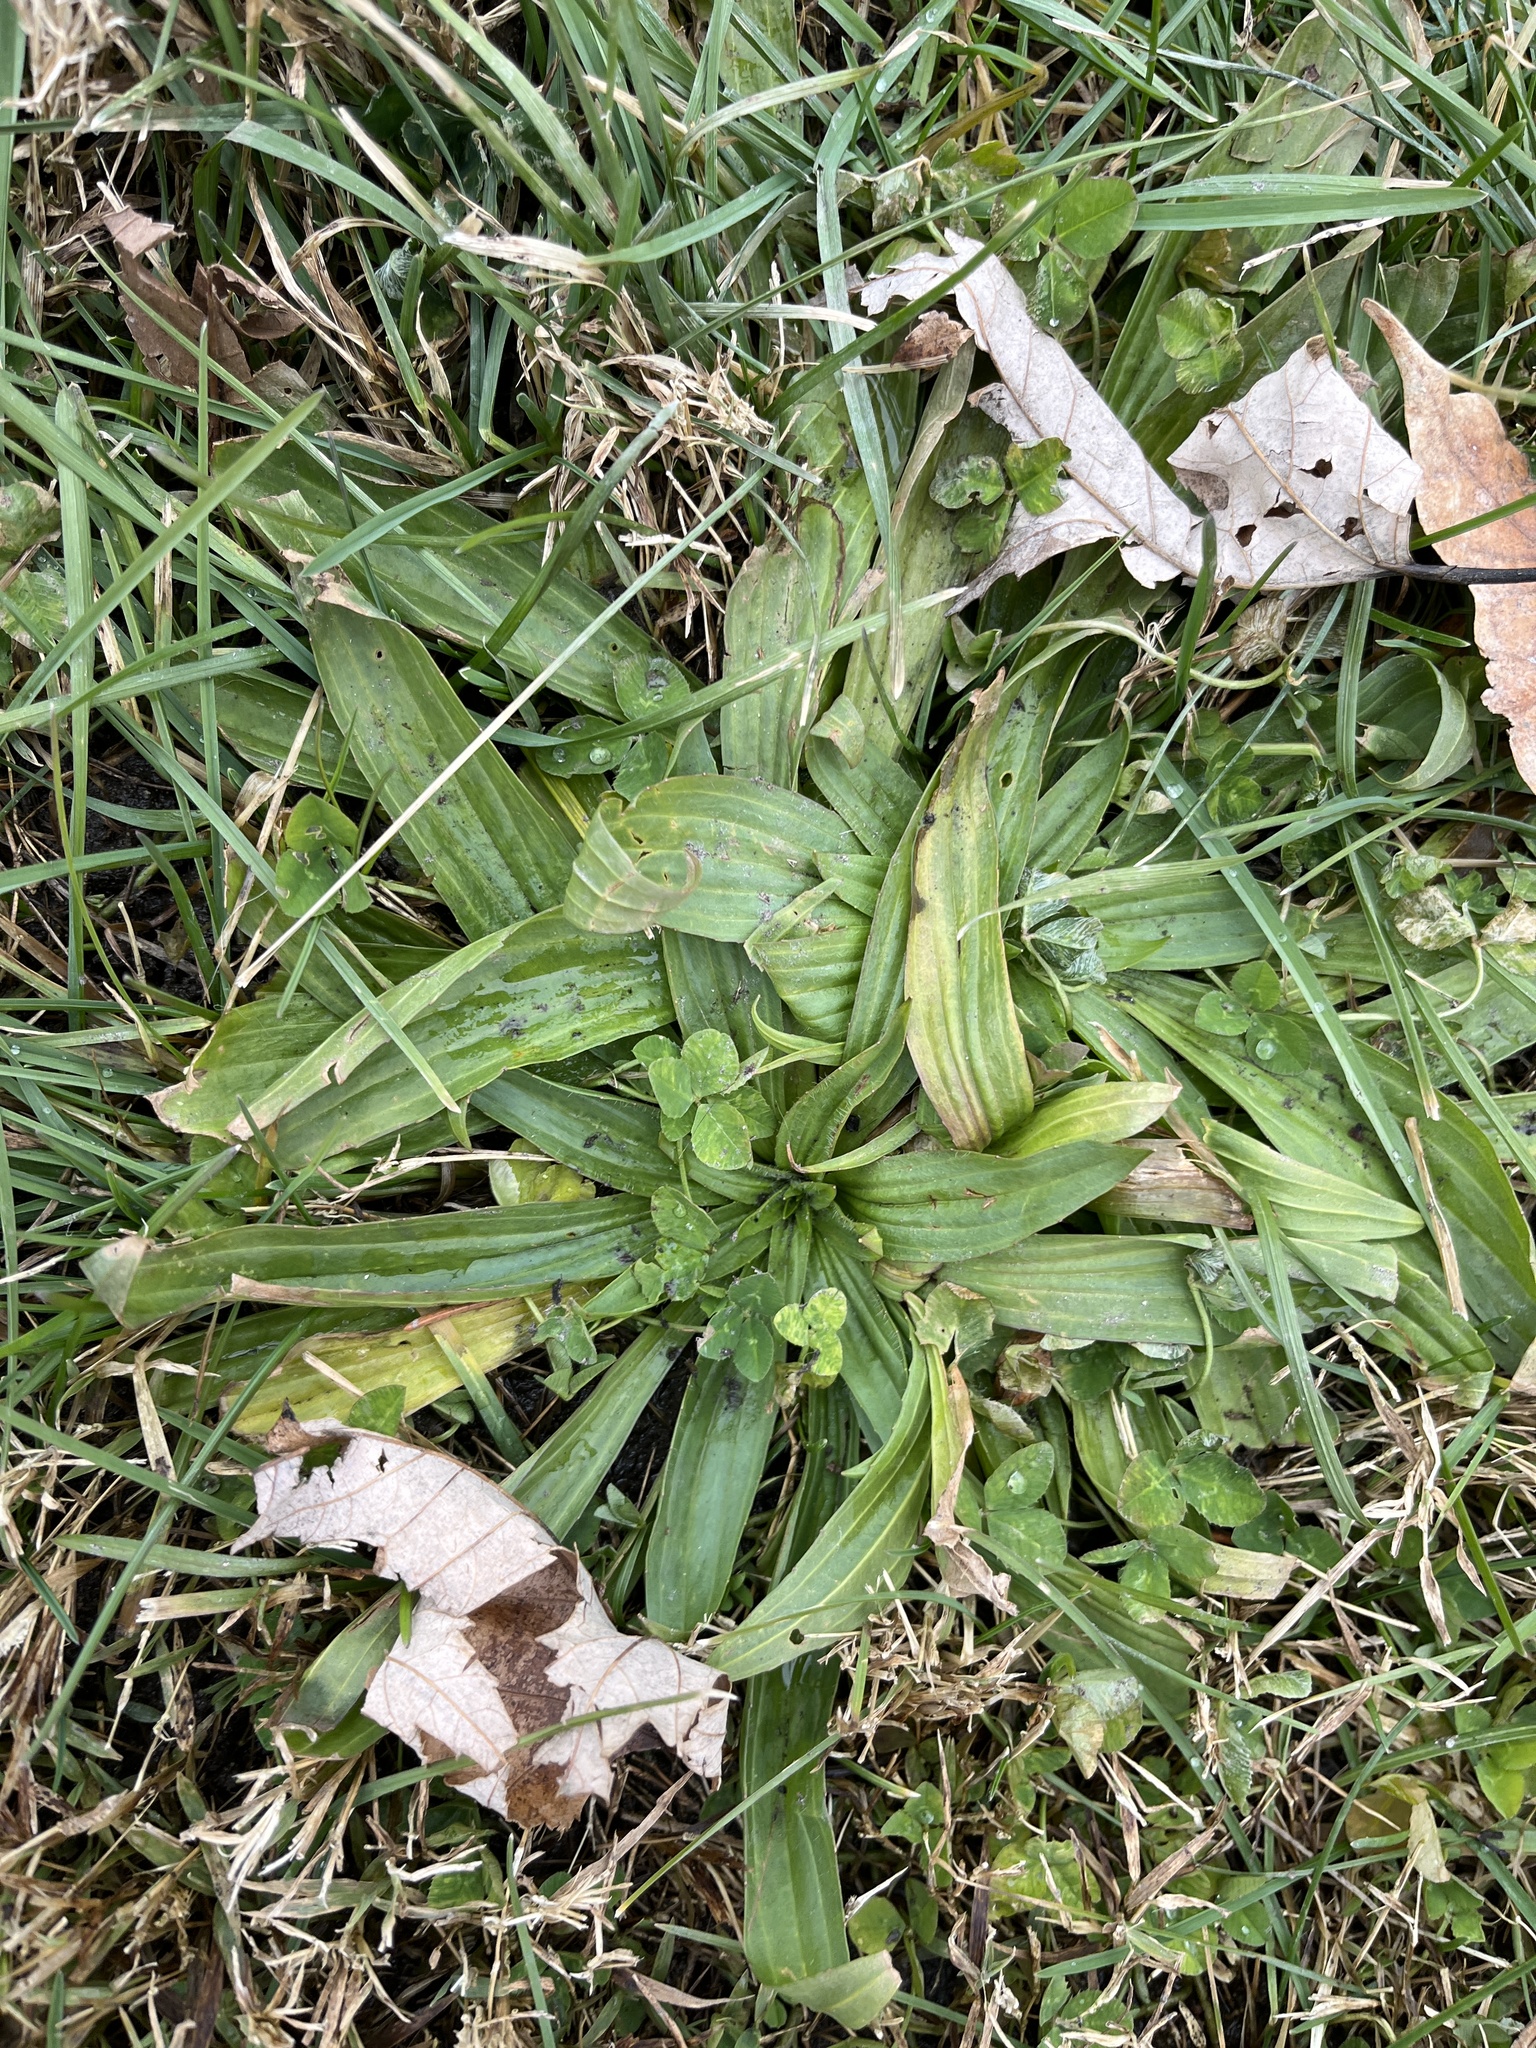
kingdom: Plantae
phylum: Tracheophyta
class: Magnoliopsida
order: Lamiales
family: Plantaginaceae
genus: Plantago
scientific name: Plantago lanceolata
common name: Ribwort plantain
